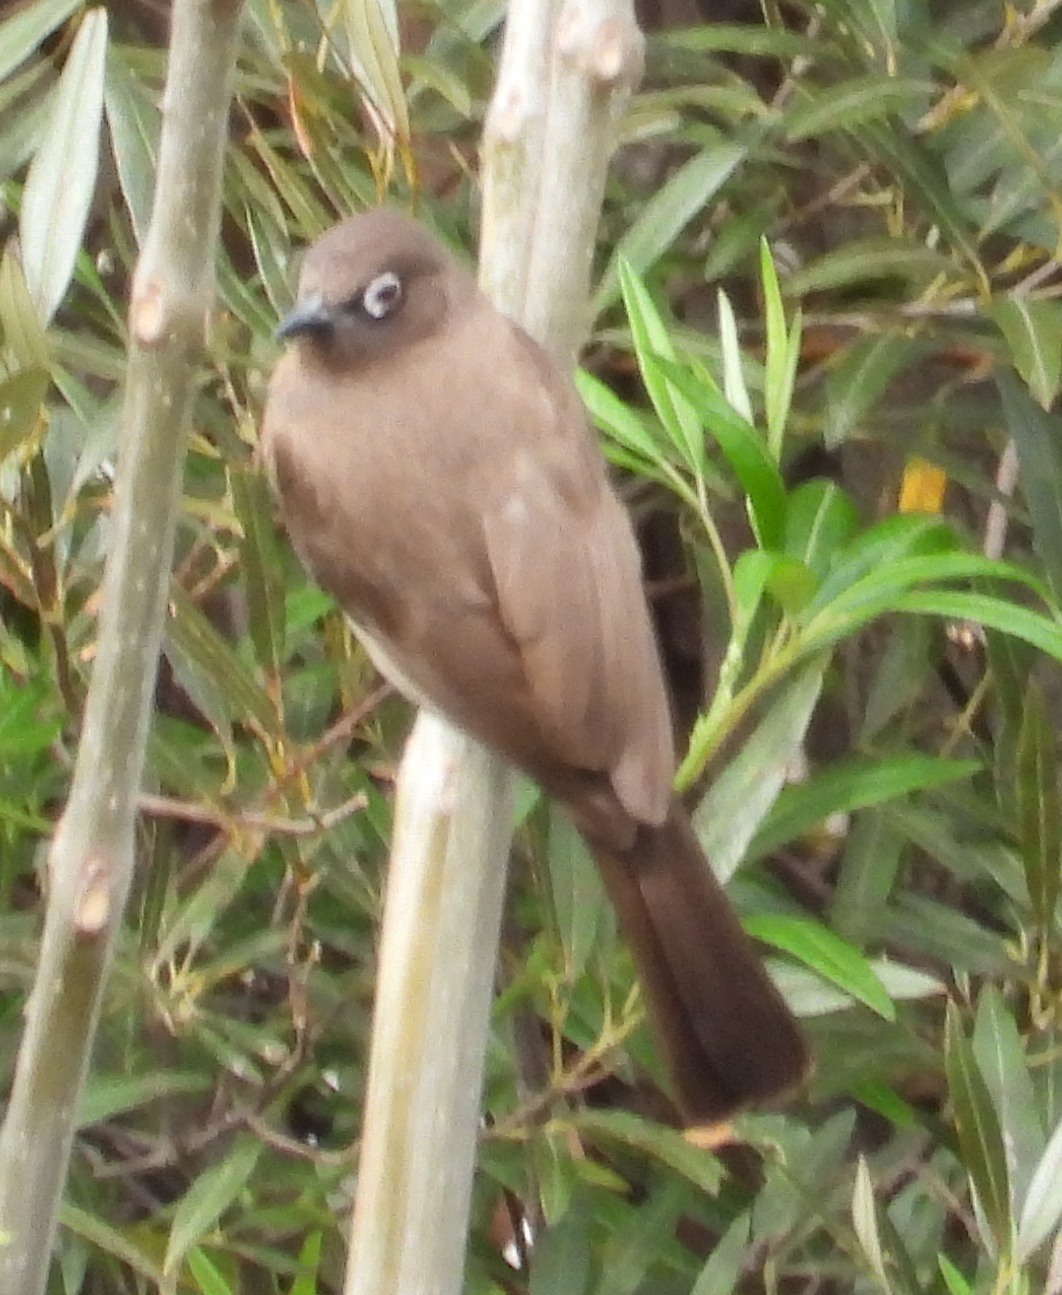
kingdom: Animalia
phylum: Chordata
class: Aves
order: Passeriformes
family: Pycnonotidae
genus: Pycnonotus
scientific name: Pycnonotus capensis
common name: Cape bulbul
